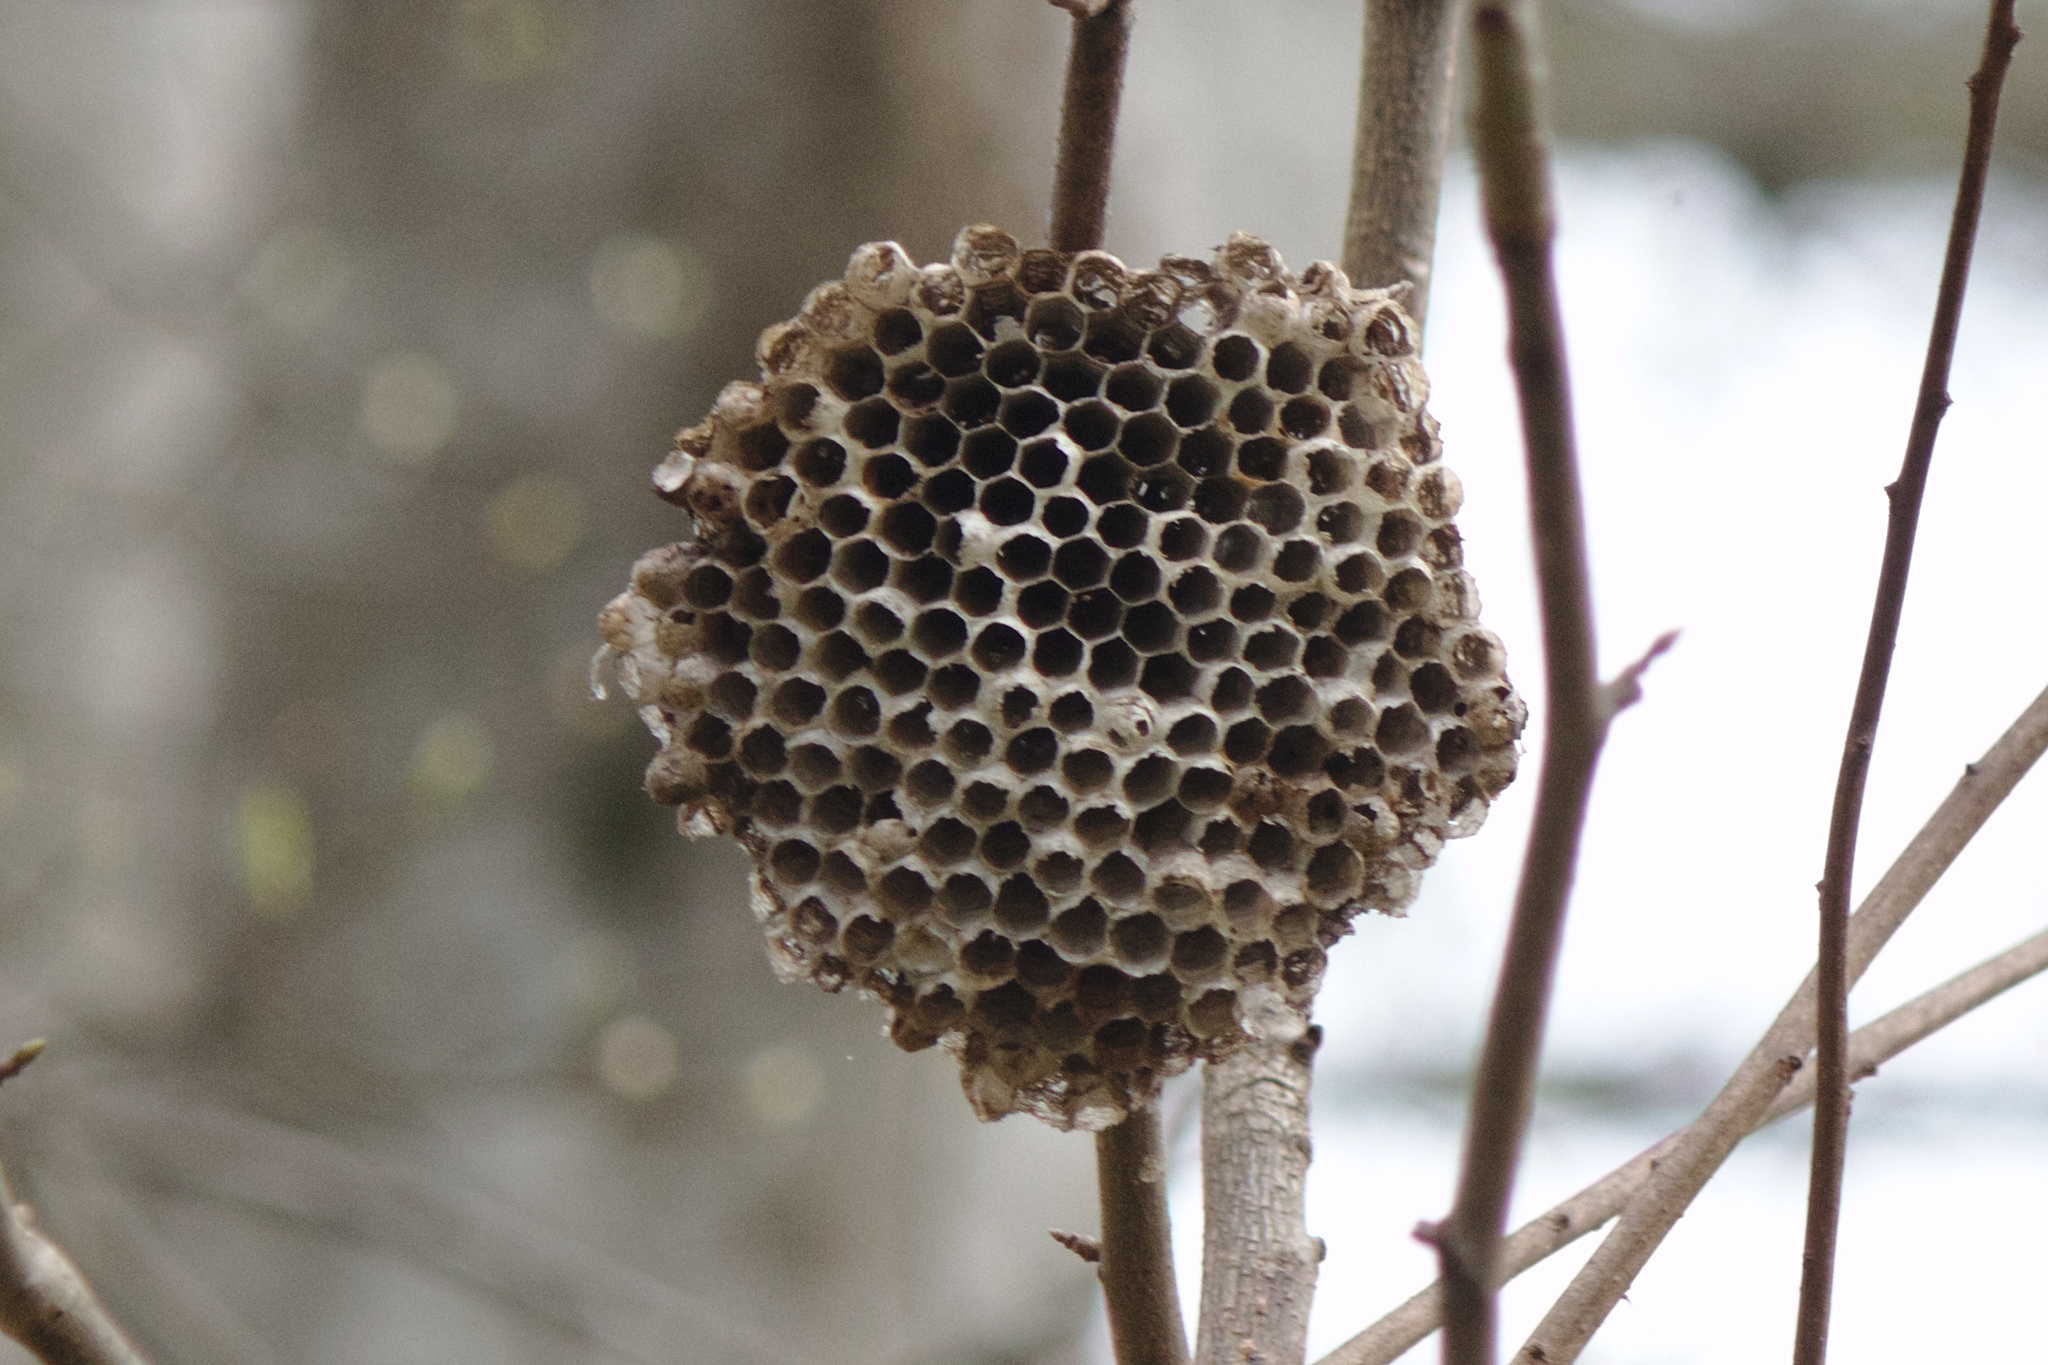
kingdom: Animalia
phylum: Arthropoda
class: Insecta
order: Hymenoptera
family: Eumenidae
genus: Polistes
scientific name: Polistes
